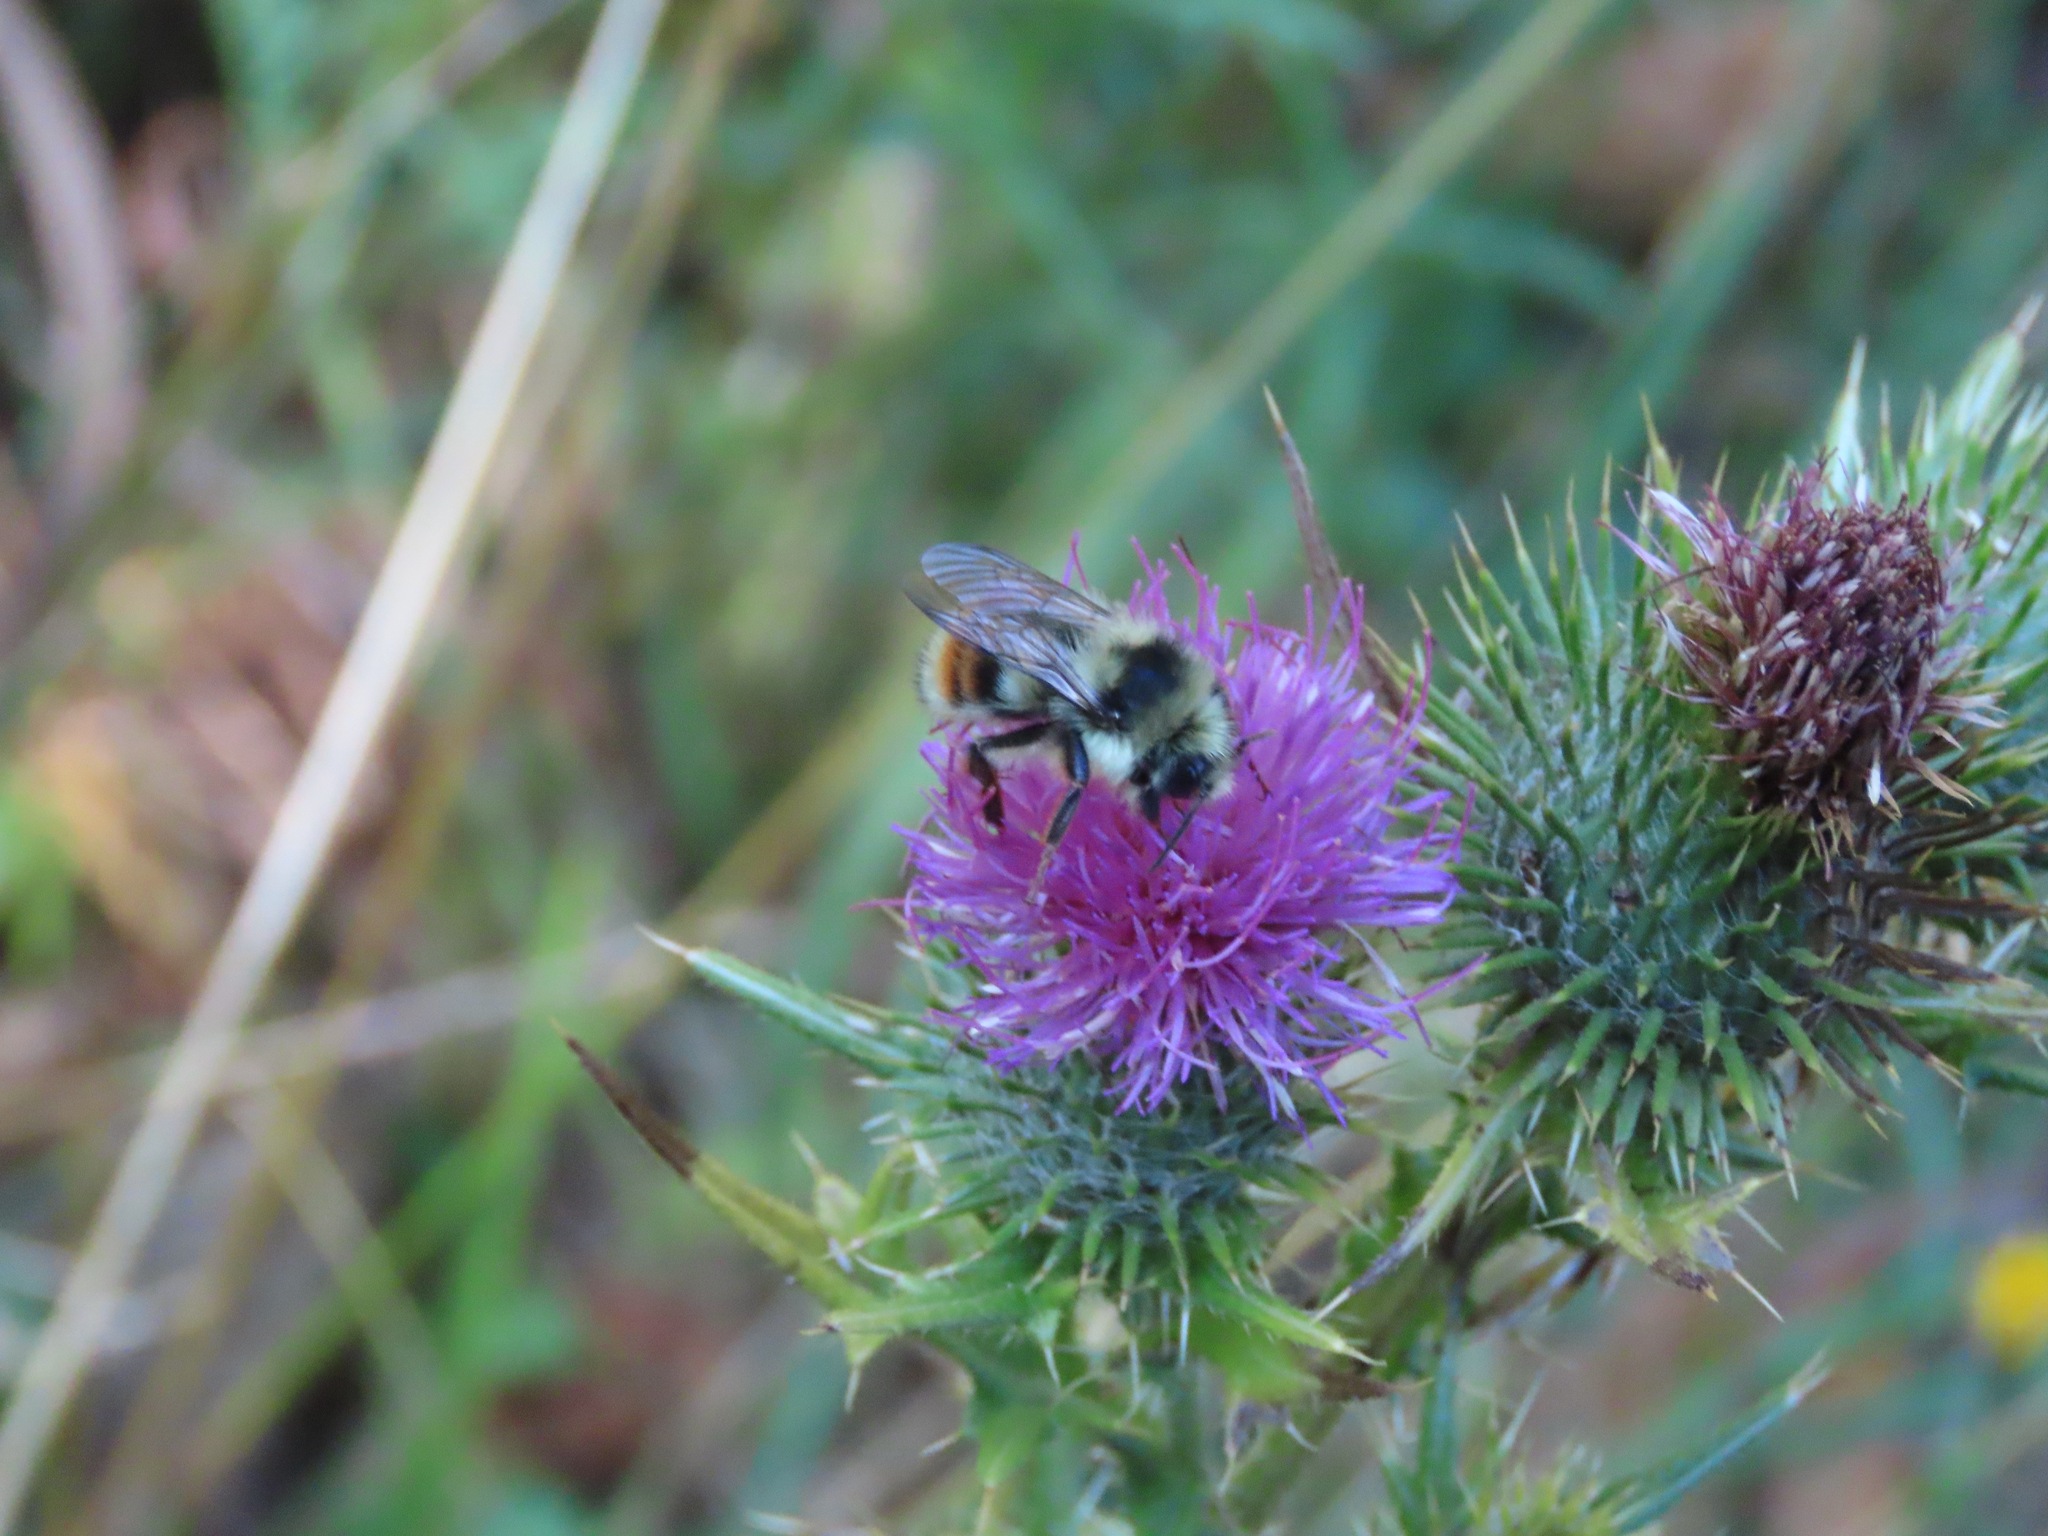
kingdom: Animalia
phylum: Arthropoda
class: Insecta
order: Hymenoptera
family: Apidae
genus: Bombus
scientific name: Bombus vancouverensis
